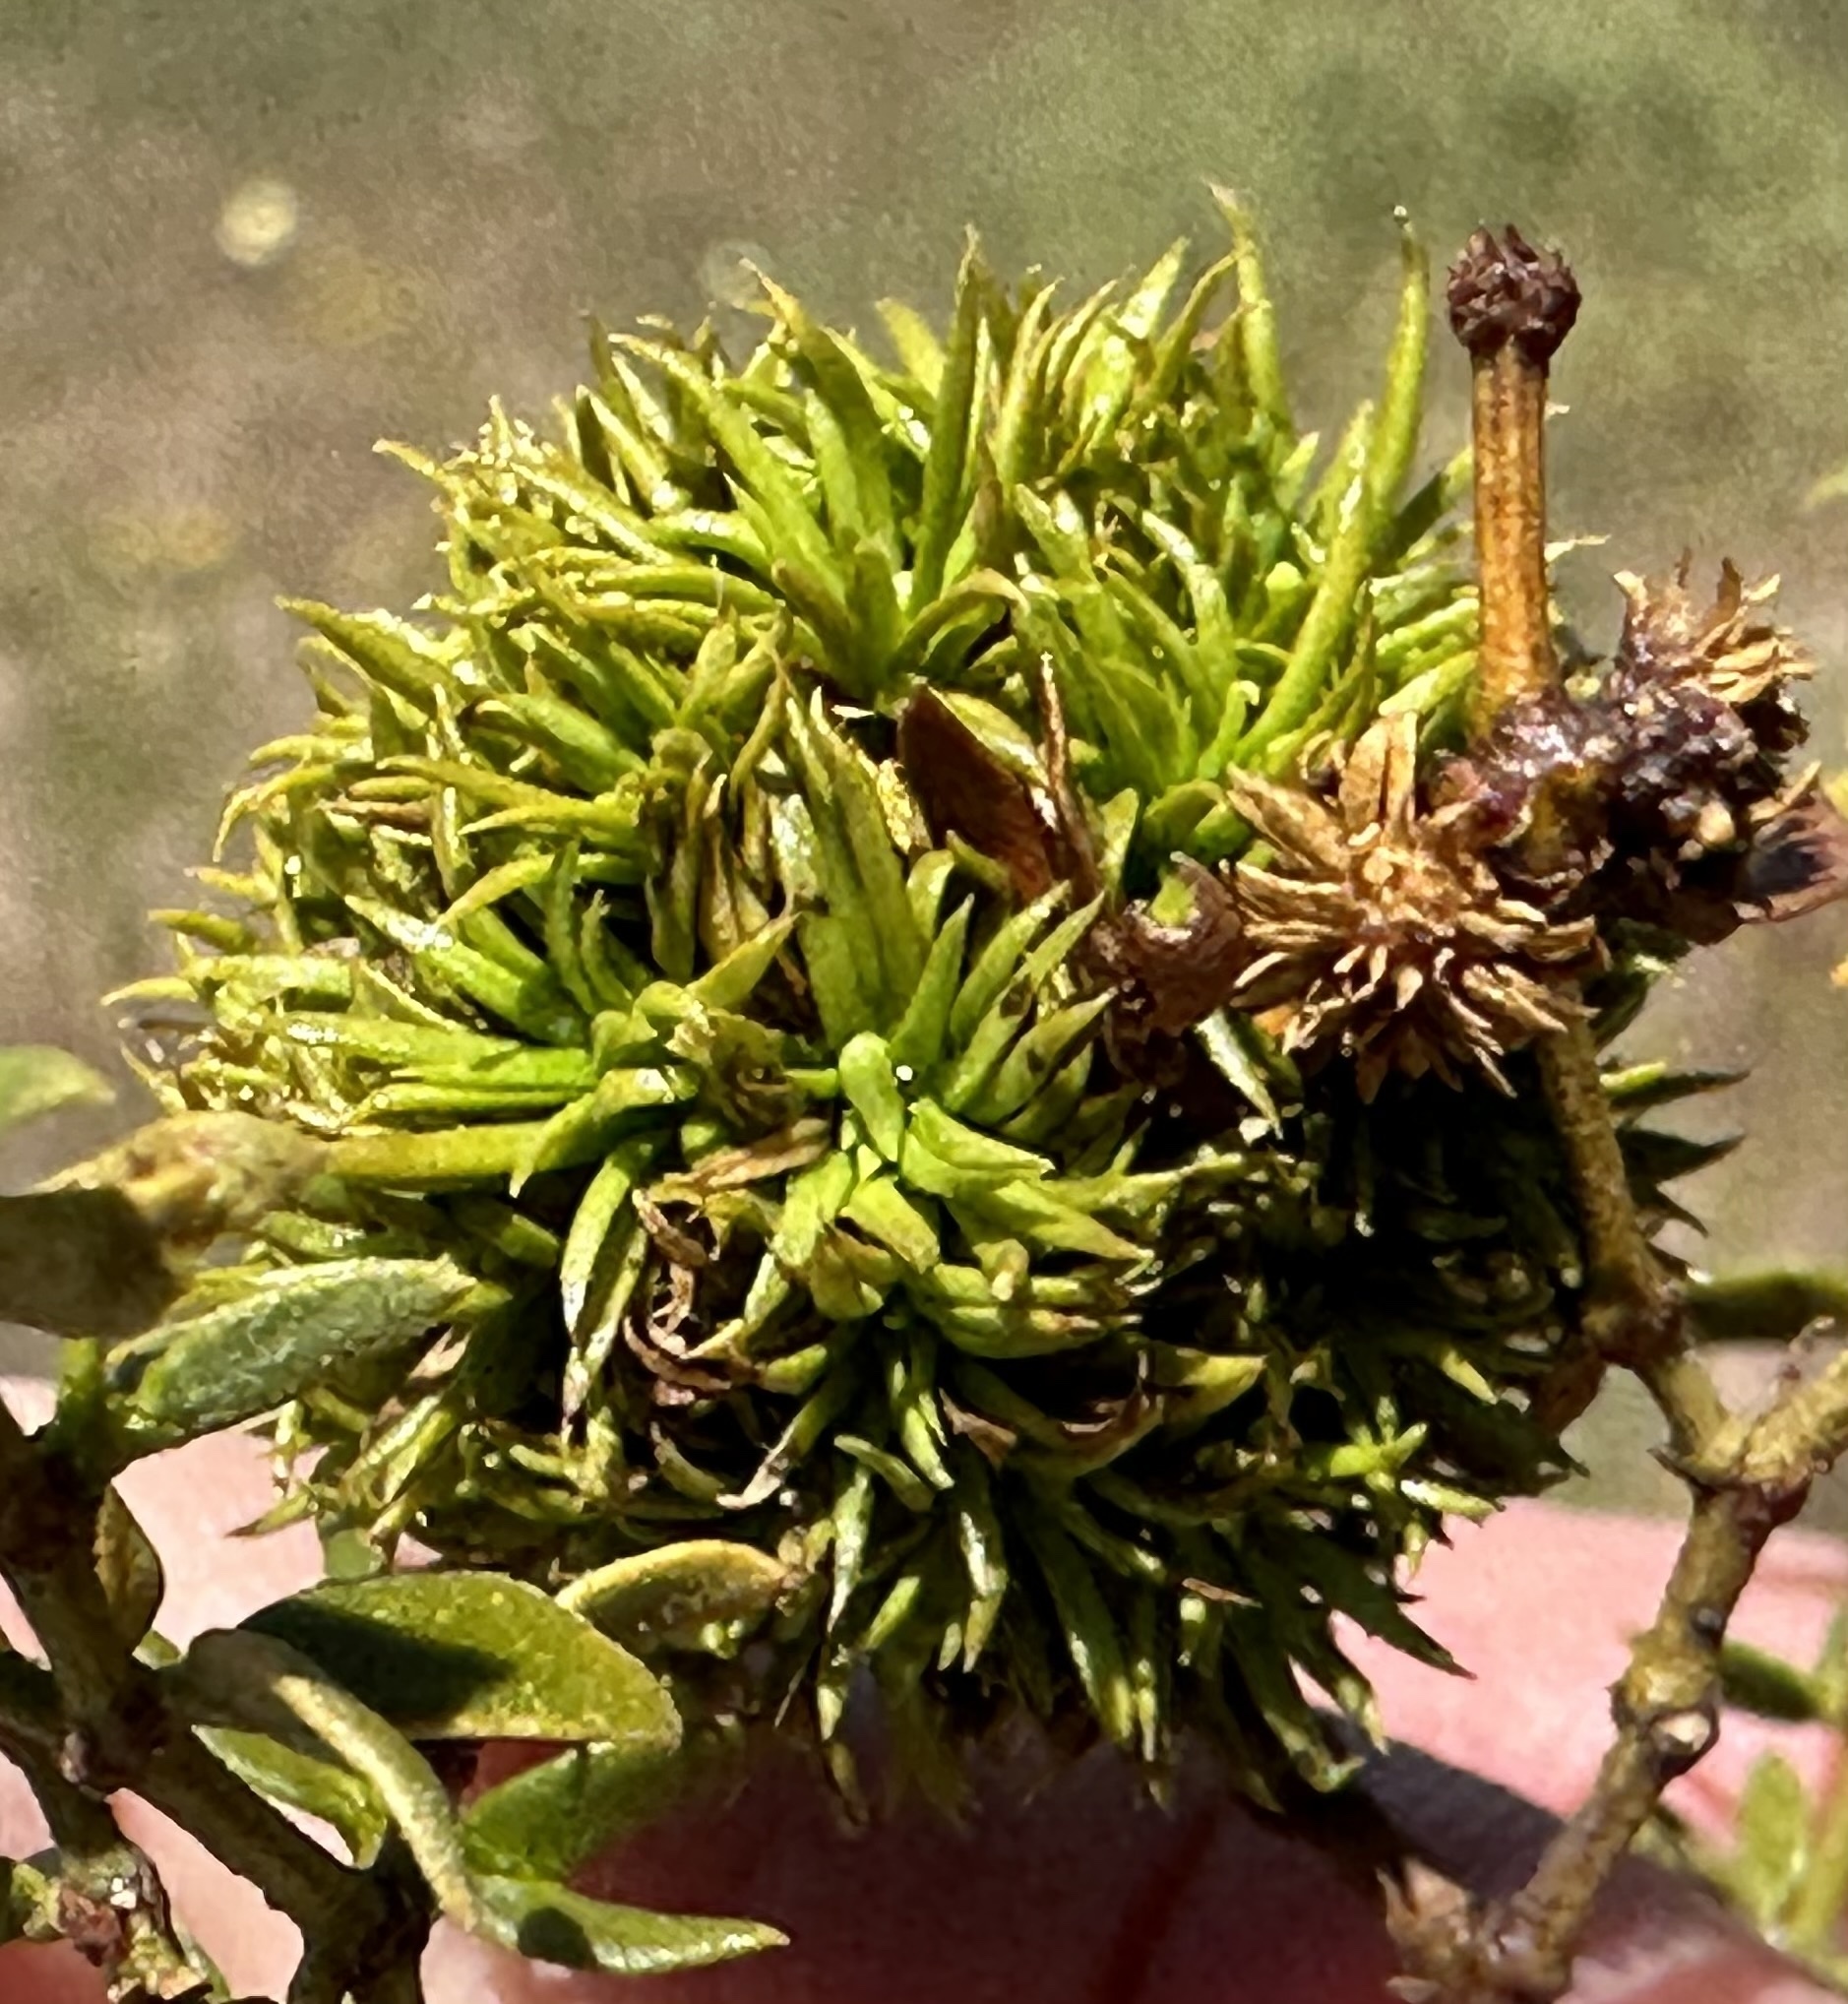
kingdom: Animalia
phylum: Arthropoda
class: Insecta
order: Diptera
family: Cecidomyiidae
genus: Asphondylia
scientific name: Asphondylia auripila
